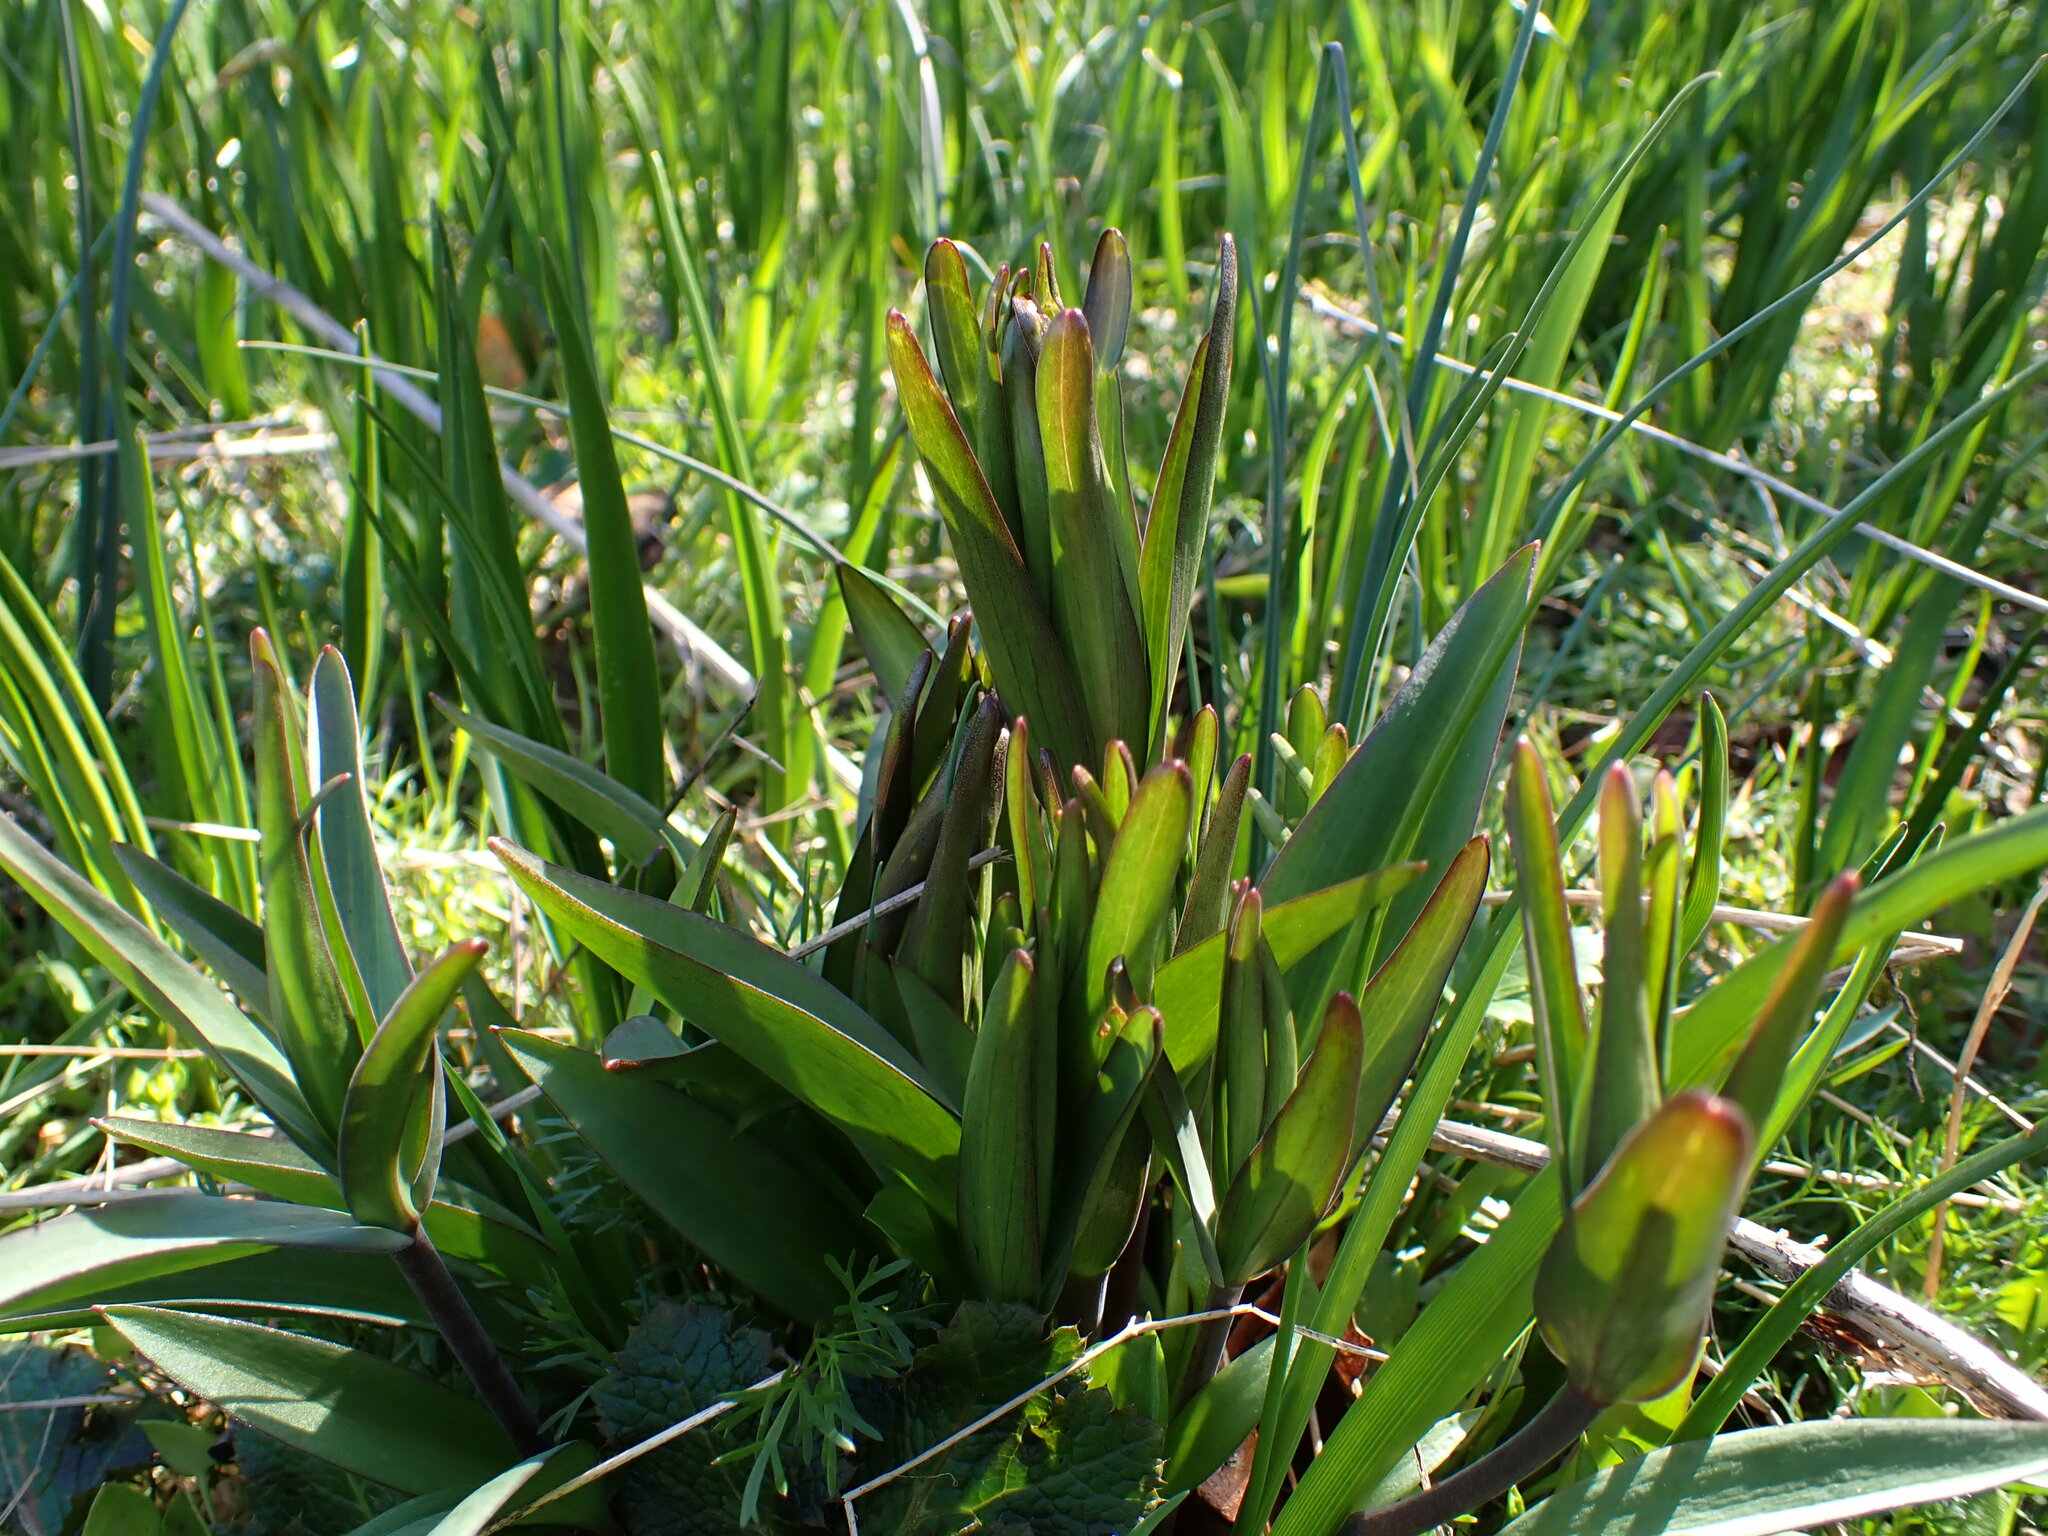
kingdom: Plantae
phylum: Tracheophyta
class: Liliopsida
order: Liliales
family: Liliaceae
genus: Fritillaria
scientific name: Fritillaria affinis
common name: Ojai fritillary
